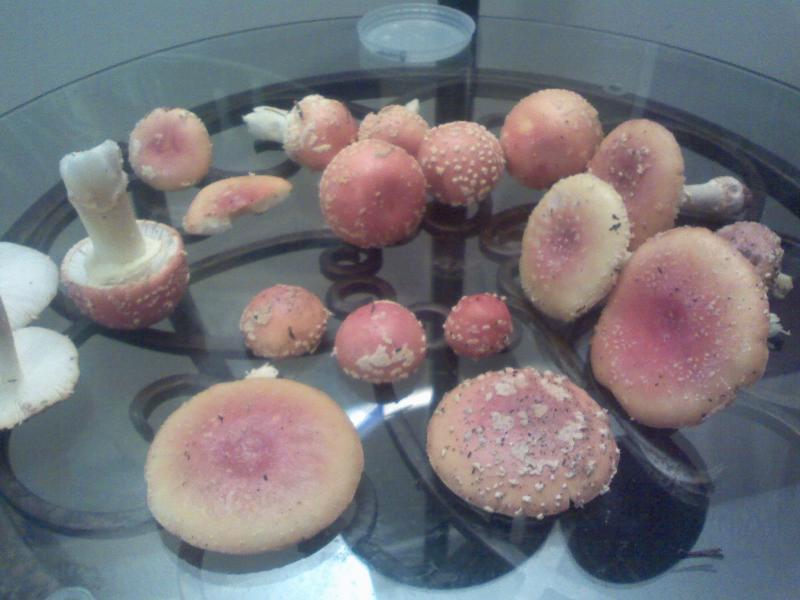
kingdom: Fungi
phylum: Basidiomycota
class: Agaricomycetes
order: Agaricales
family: Amanitaceae
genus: Amanita
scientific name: Amanita persicina
